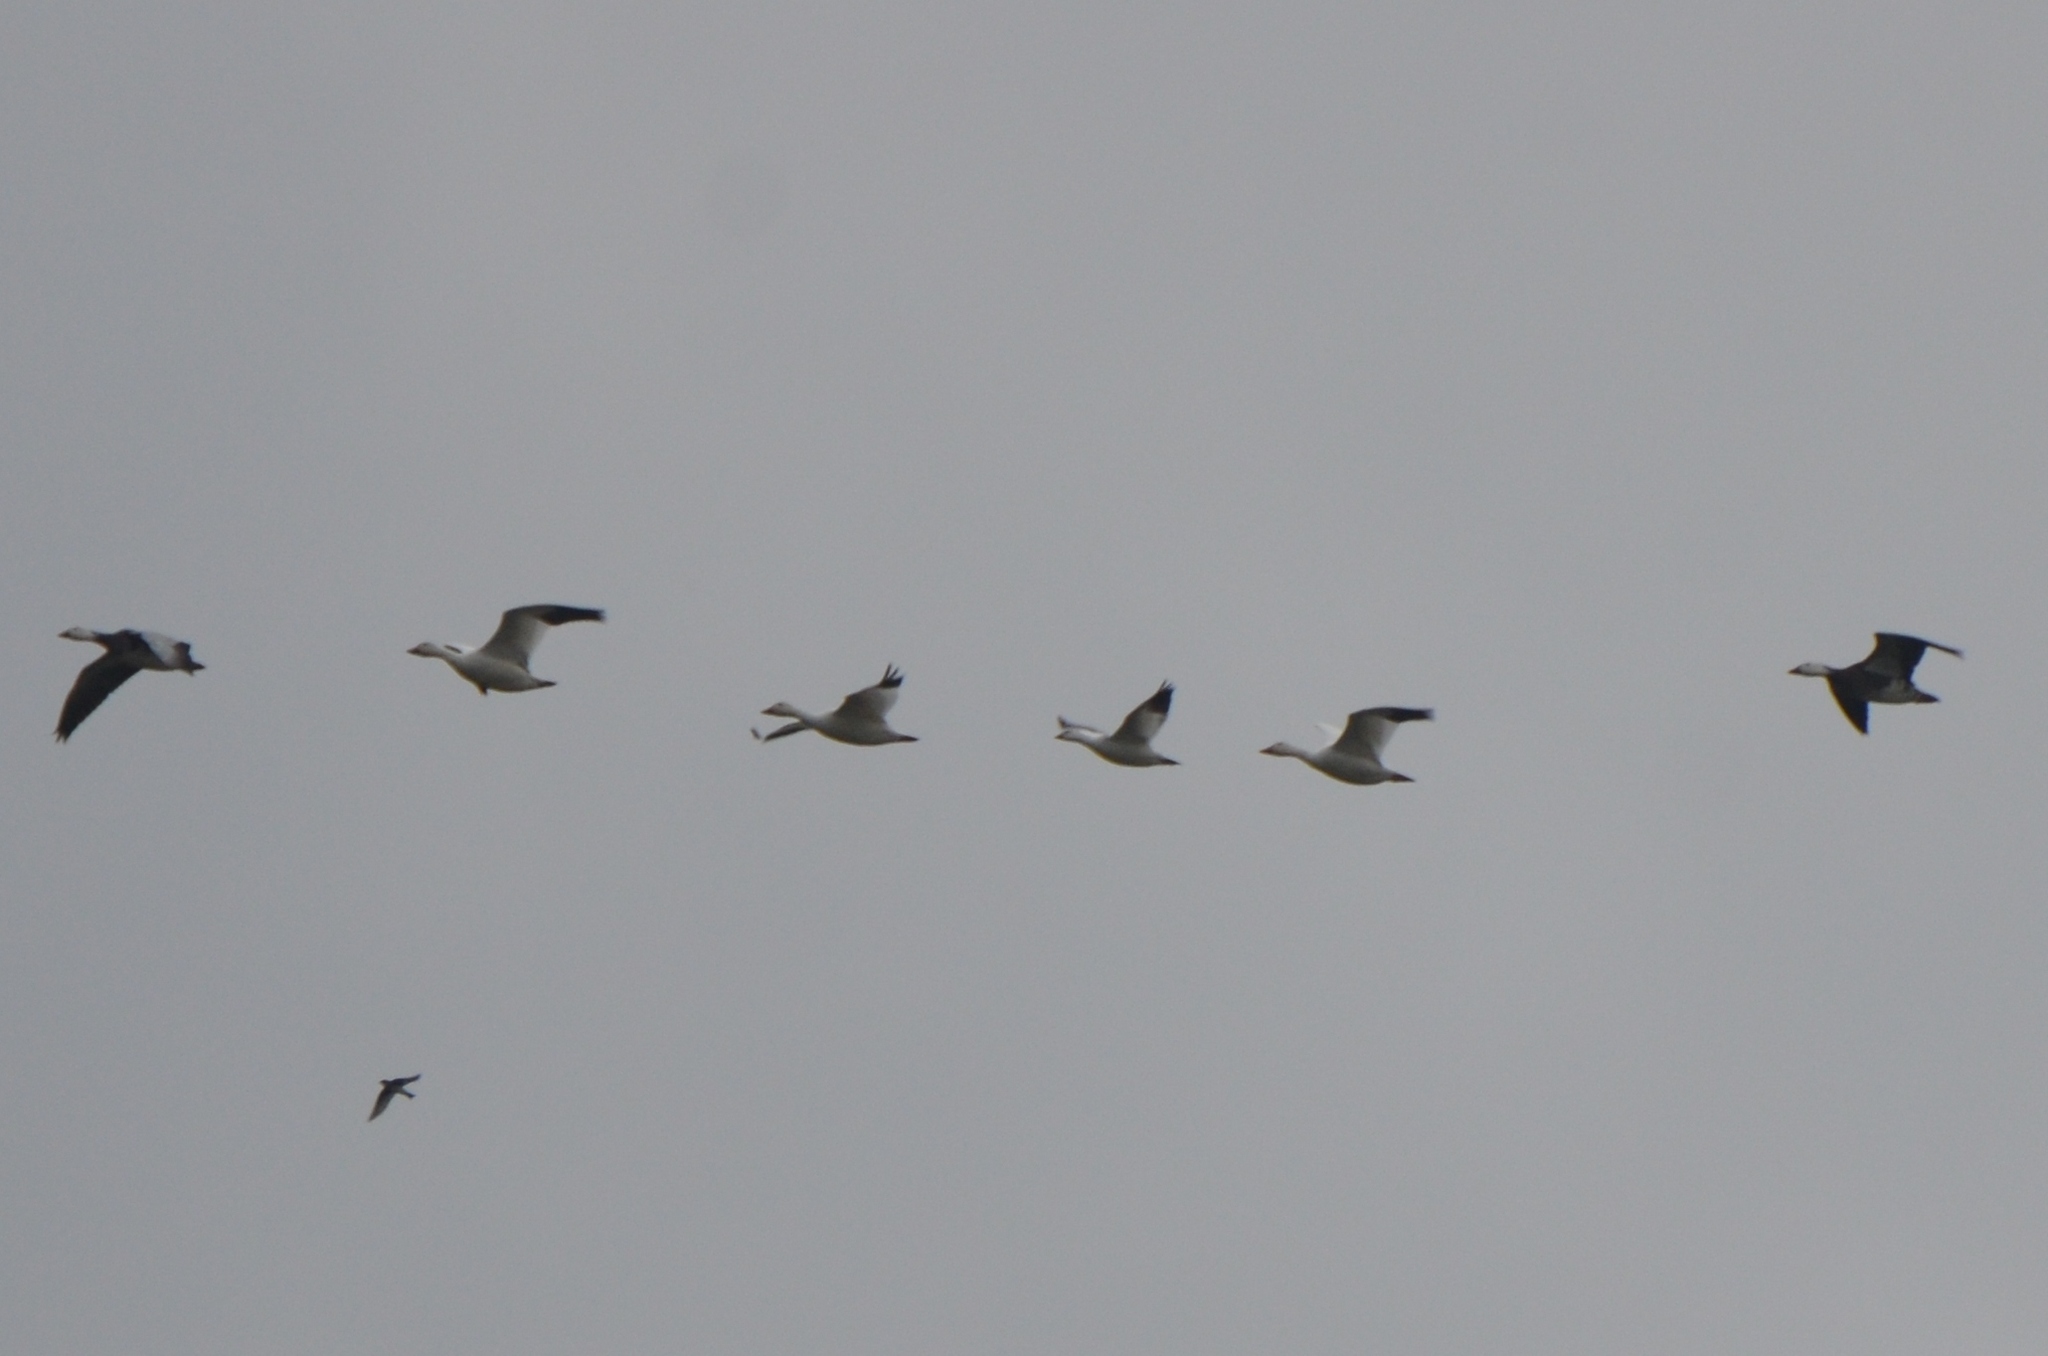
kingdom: Animalia
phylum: Chordata
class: Aves
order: Anseriformes
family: Anatidae
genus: Anser
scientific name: Anser rossii
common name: Ross's goose
